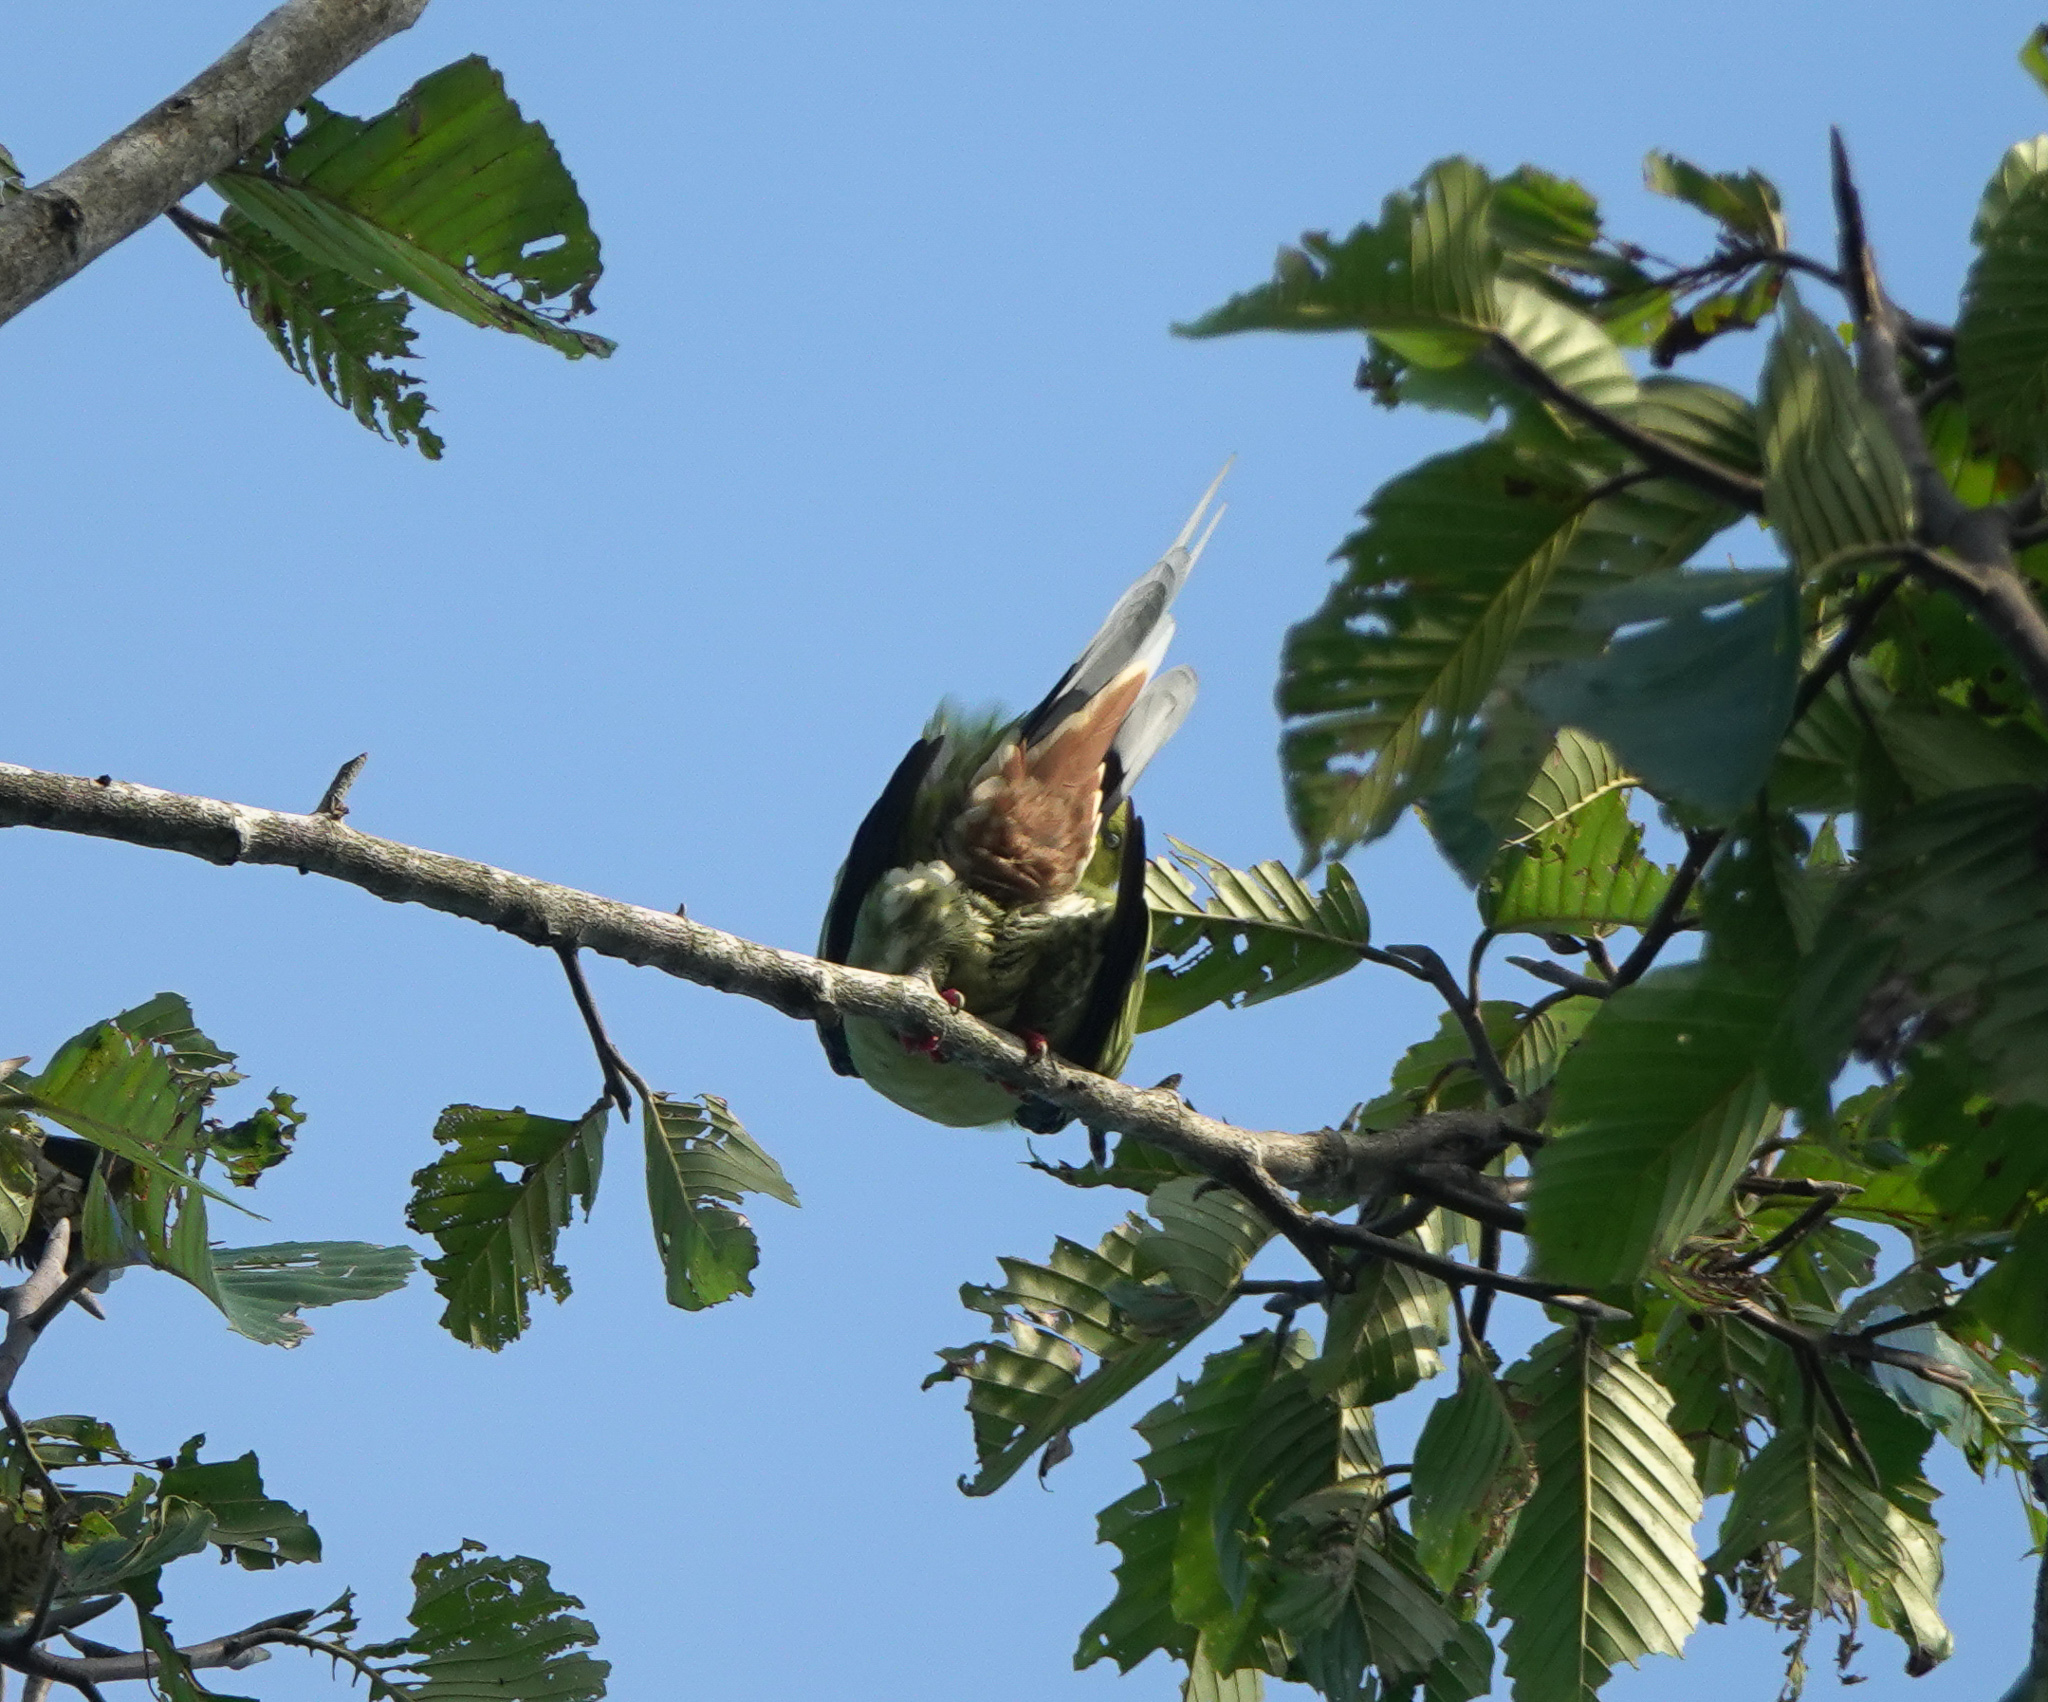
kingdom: Animalia
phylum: Chordata
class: Aves
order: Columbiformes
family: Columbidae
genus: Treron
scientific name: Treron sphenurus
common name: Wedge-tailed green pigeon
